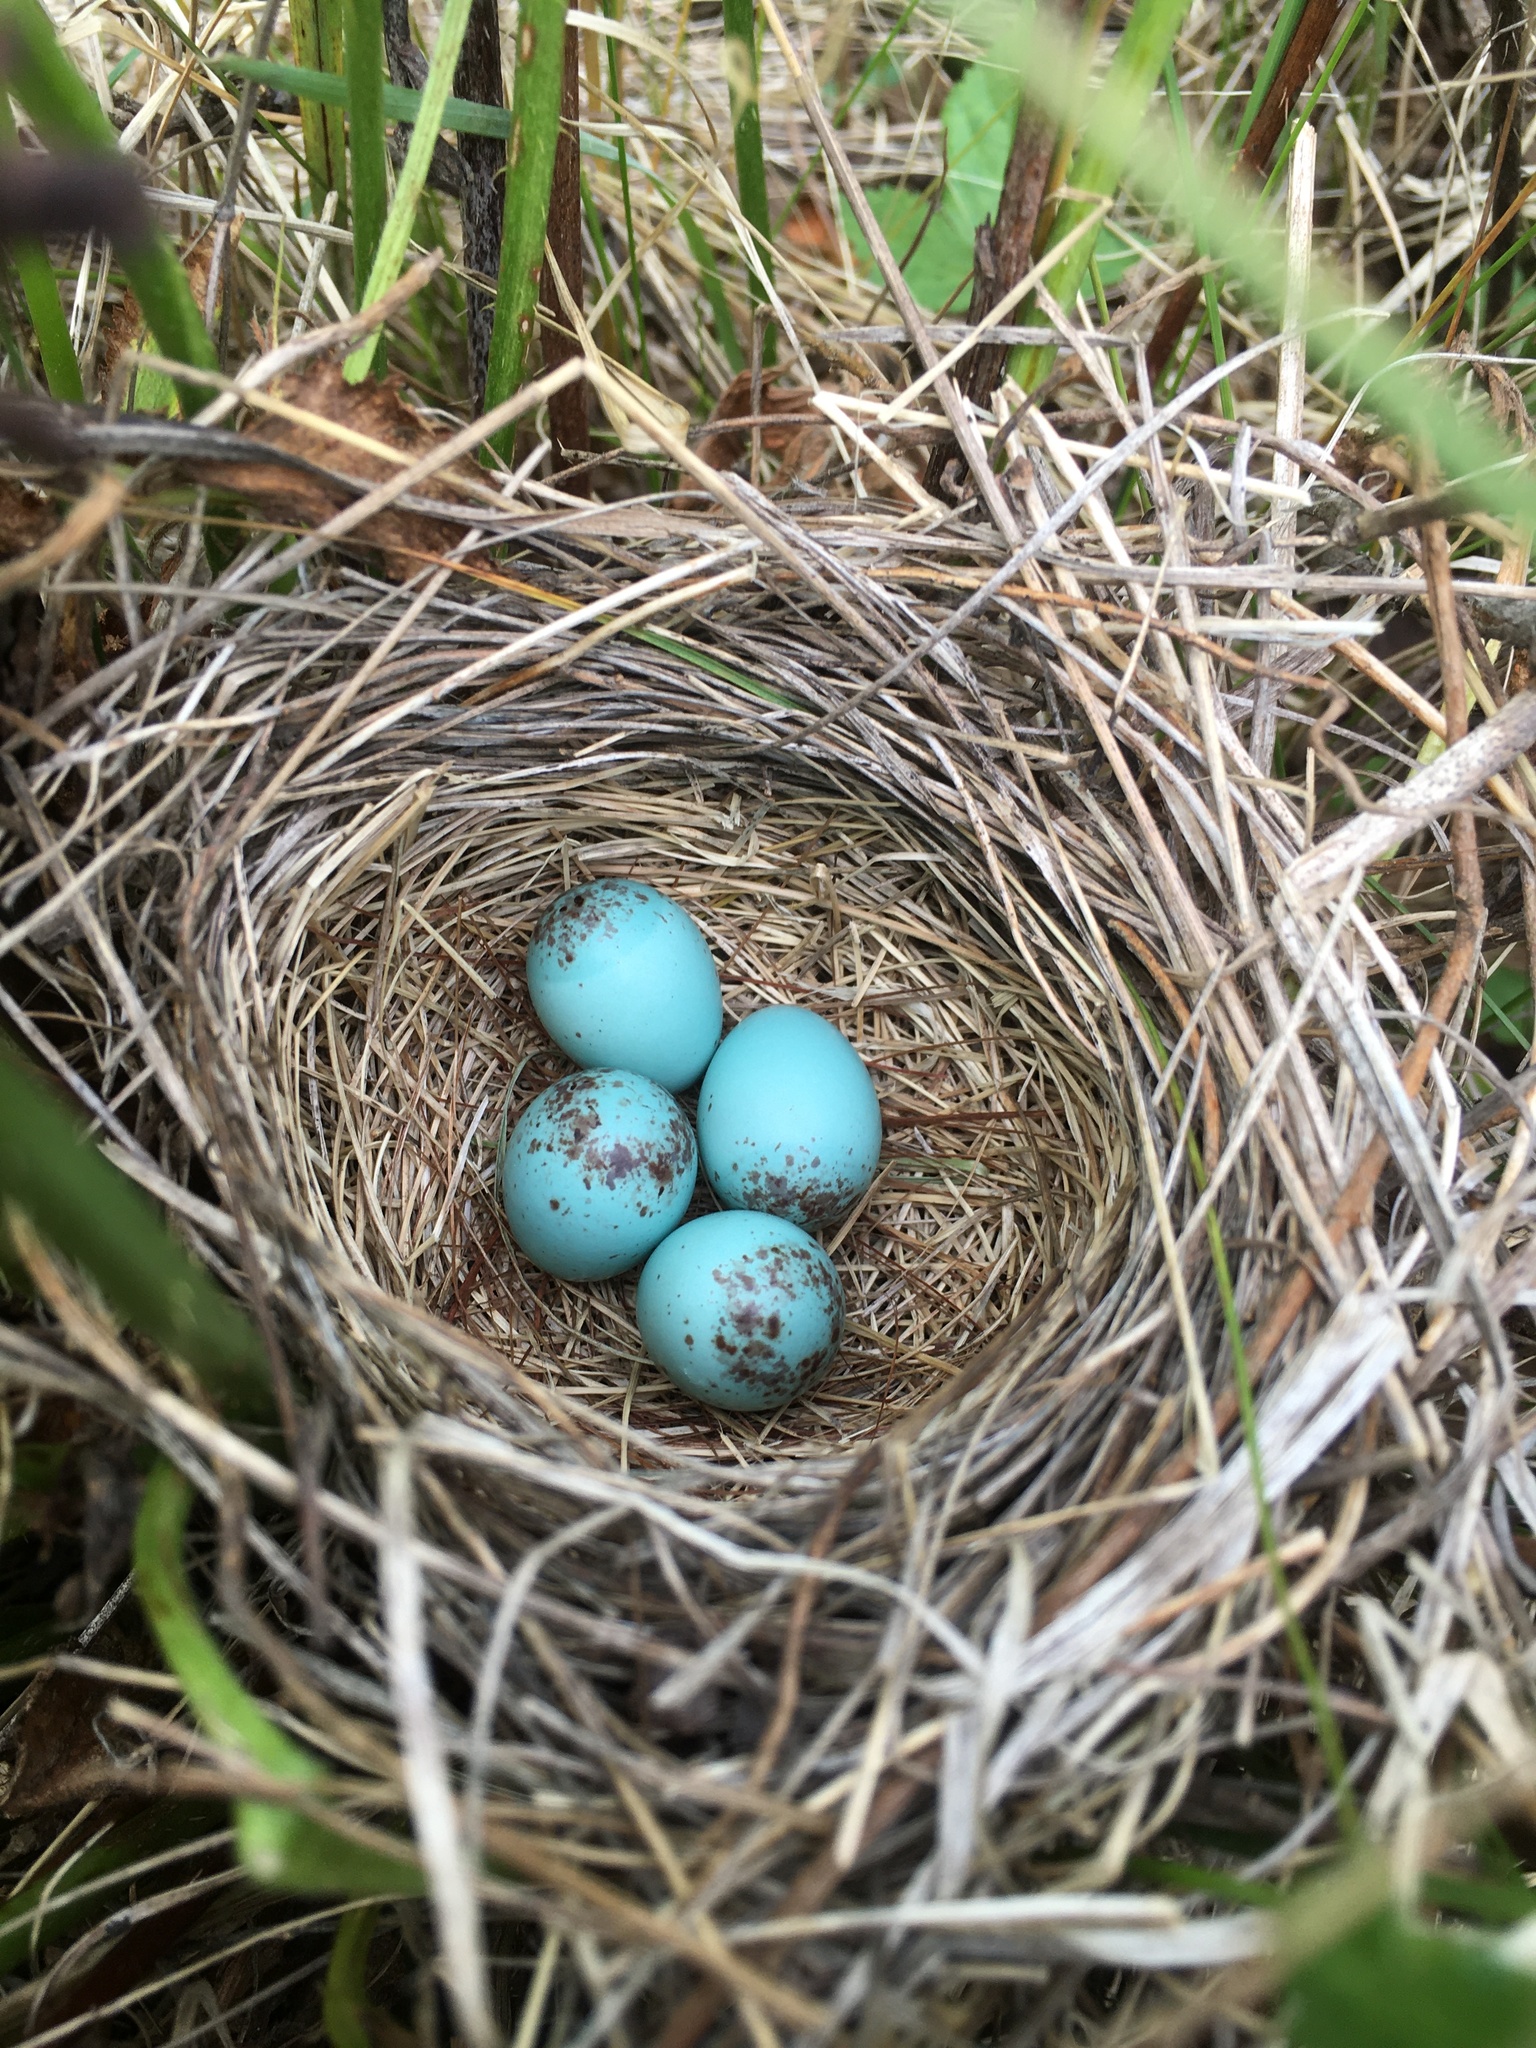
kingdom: Animalia
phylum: Chordata
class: Aves
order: Passeriformes
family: Passerellidae
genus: Spizella
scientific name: Spizella pallida
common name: Clay-colored sparrow
